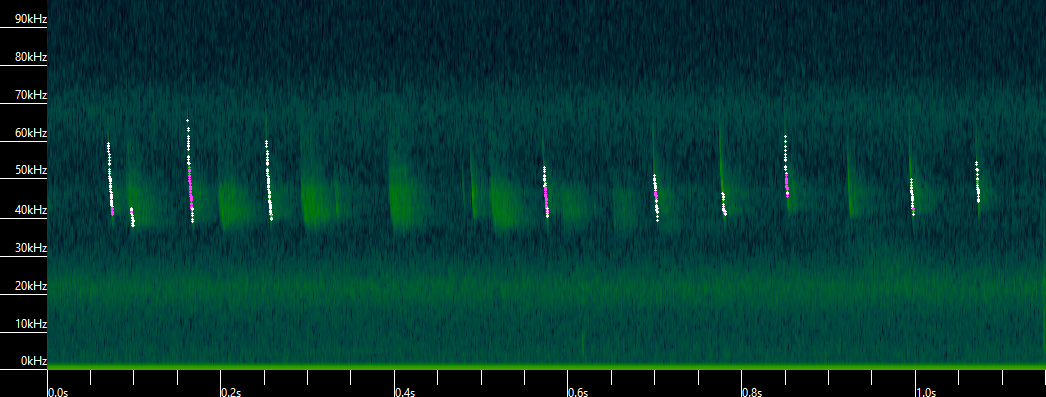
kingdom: Animalia
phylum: Chordata
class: Mammalia
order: Chiroptera
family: Vespertilionidae
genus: Myotis
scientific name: Myotis lucifugus
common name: Little brown bat
